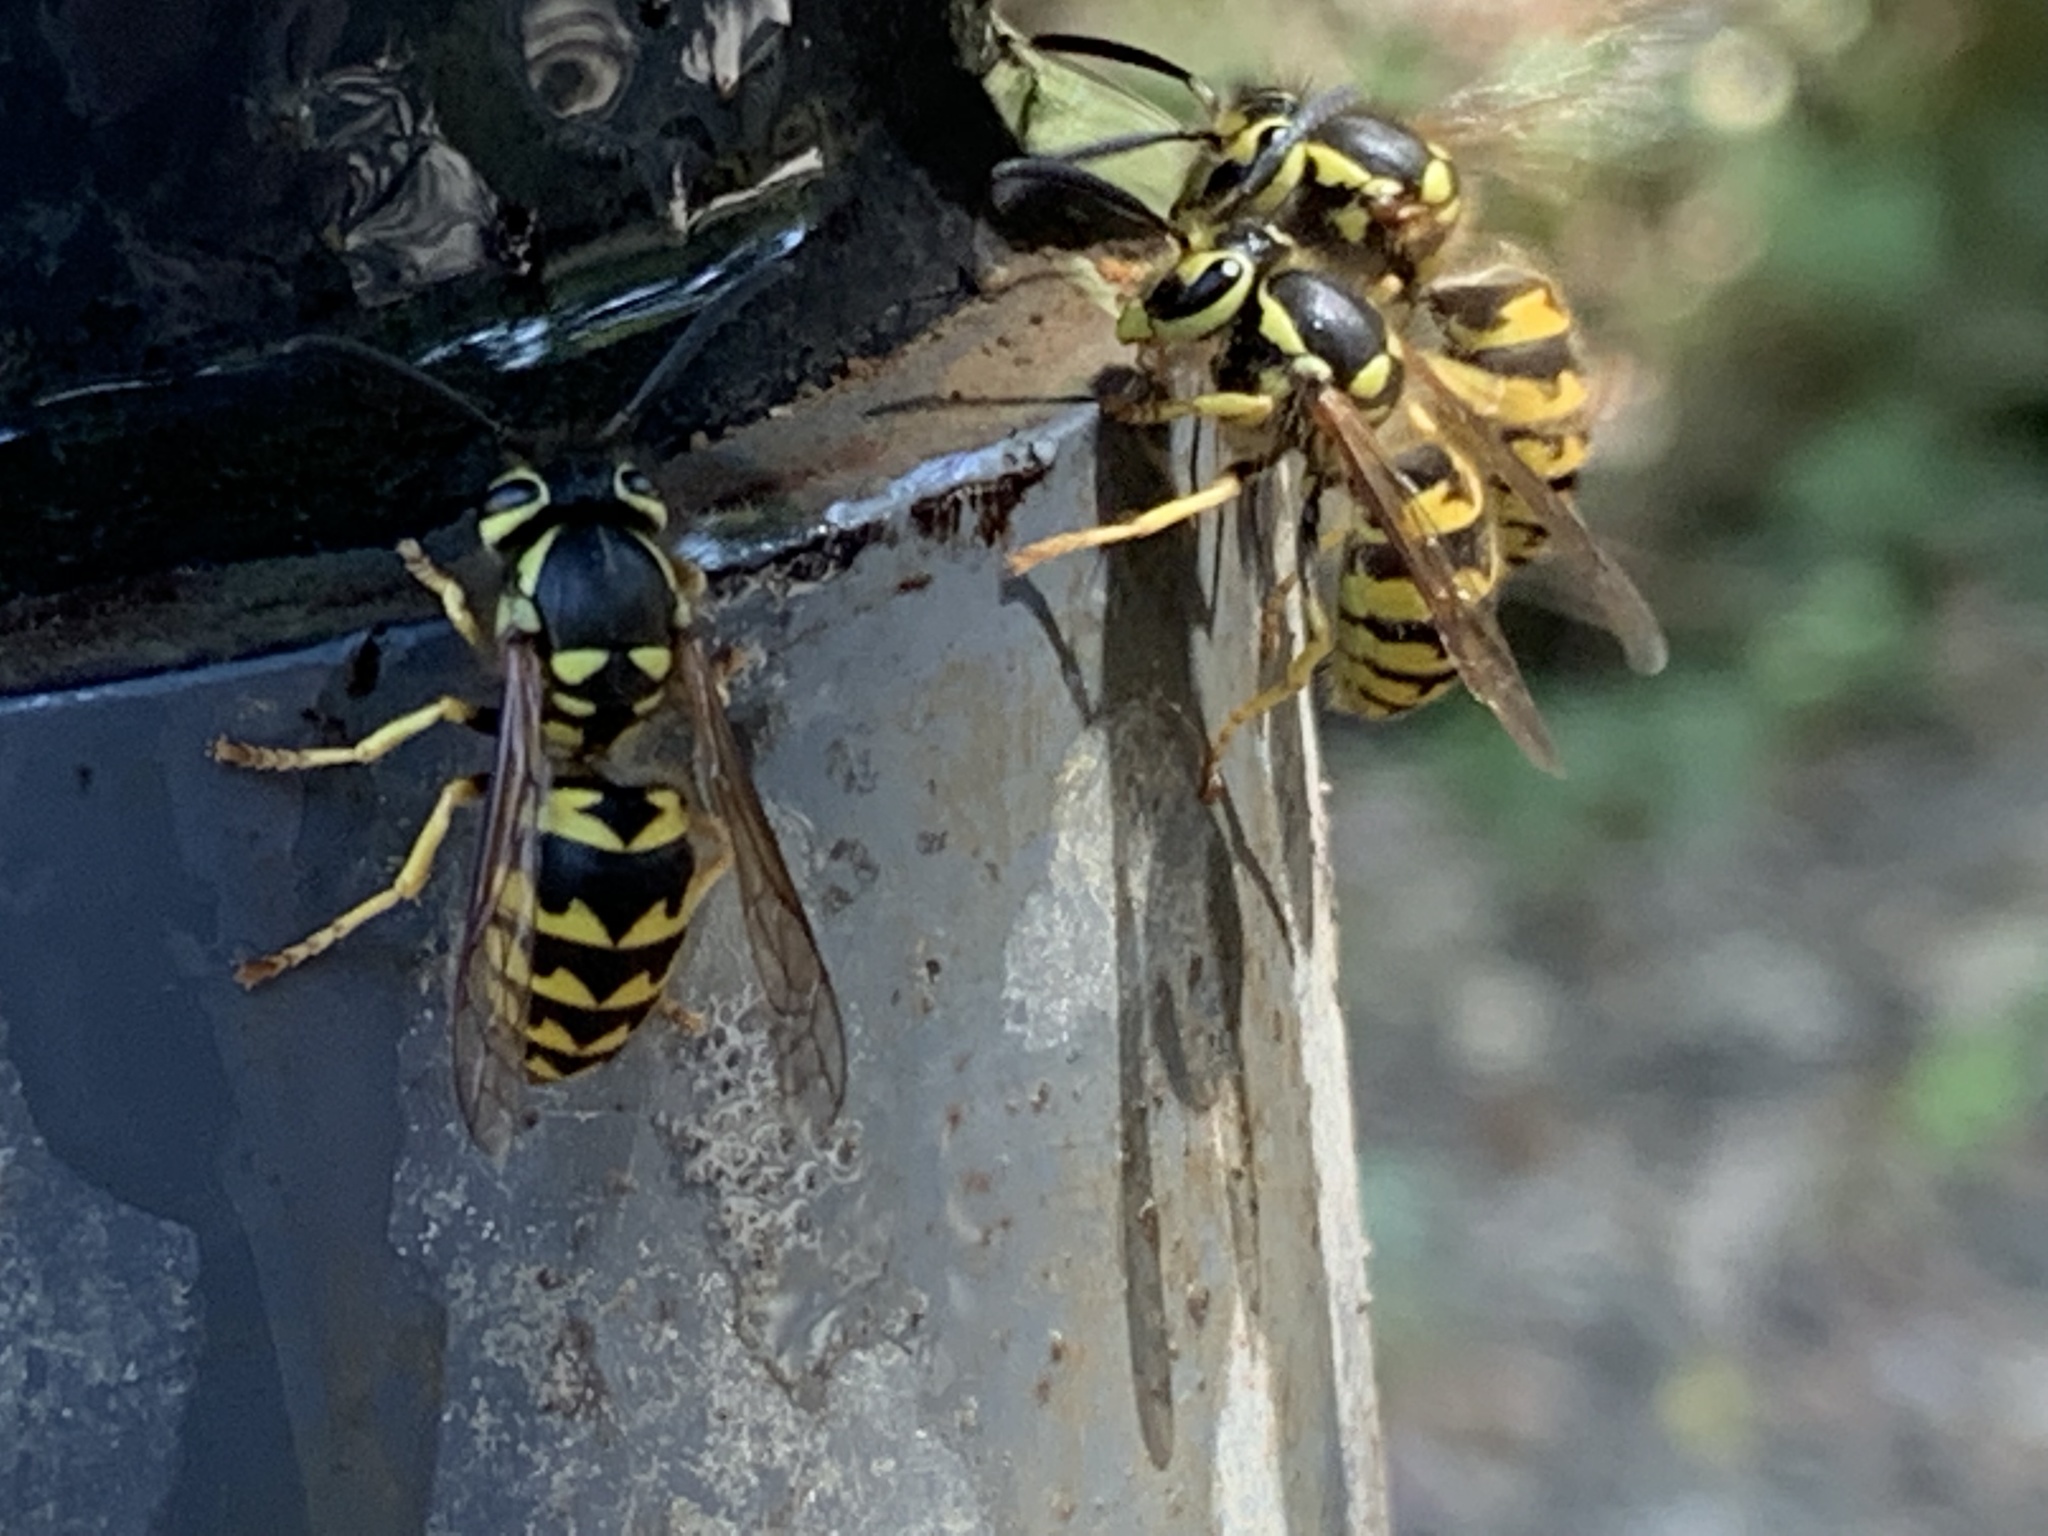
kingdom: Animalia
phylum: Arthropoda
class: Insecta
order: Hymenoptera
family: Vespidae
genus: Vespula
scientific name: Vespula pensylvanica
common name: Western yellowjacket
